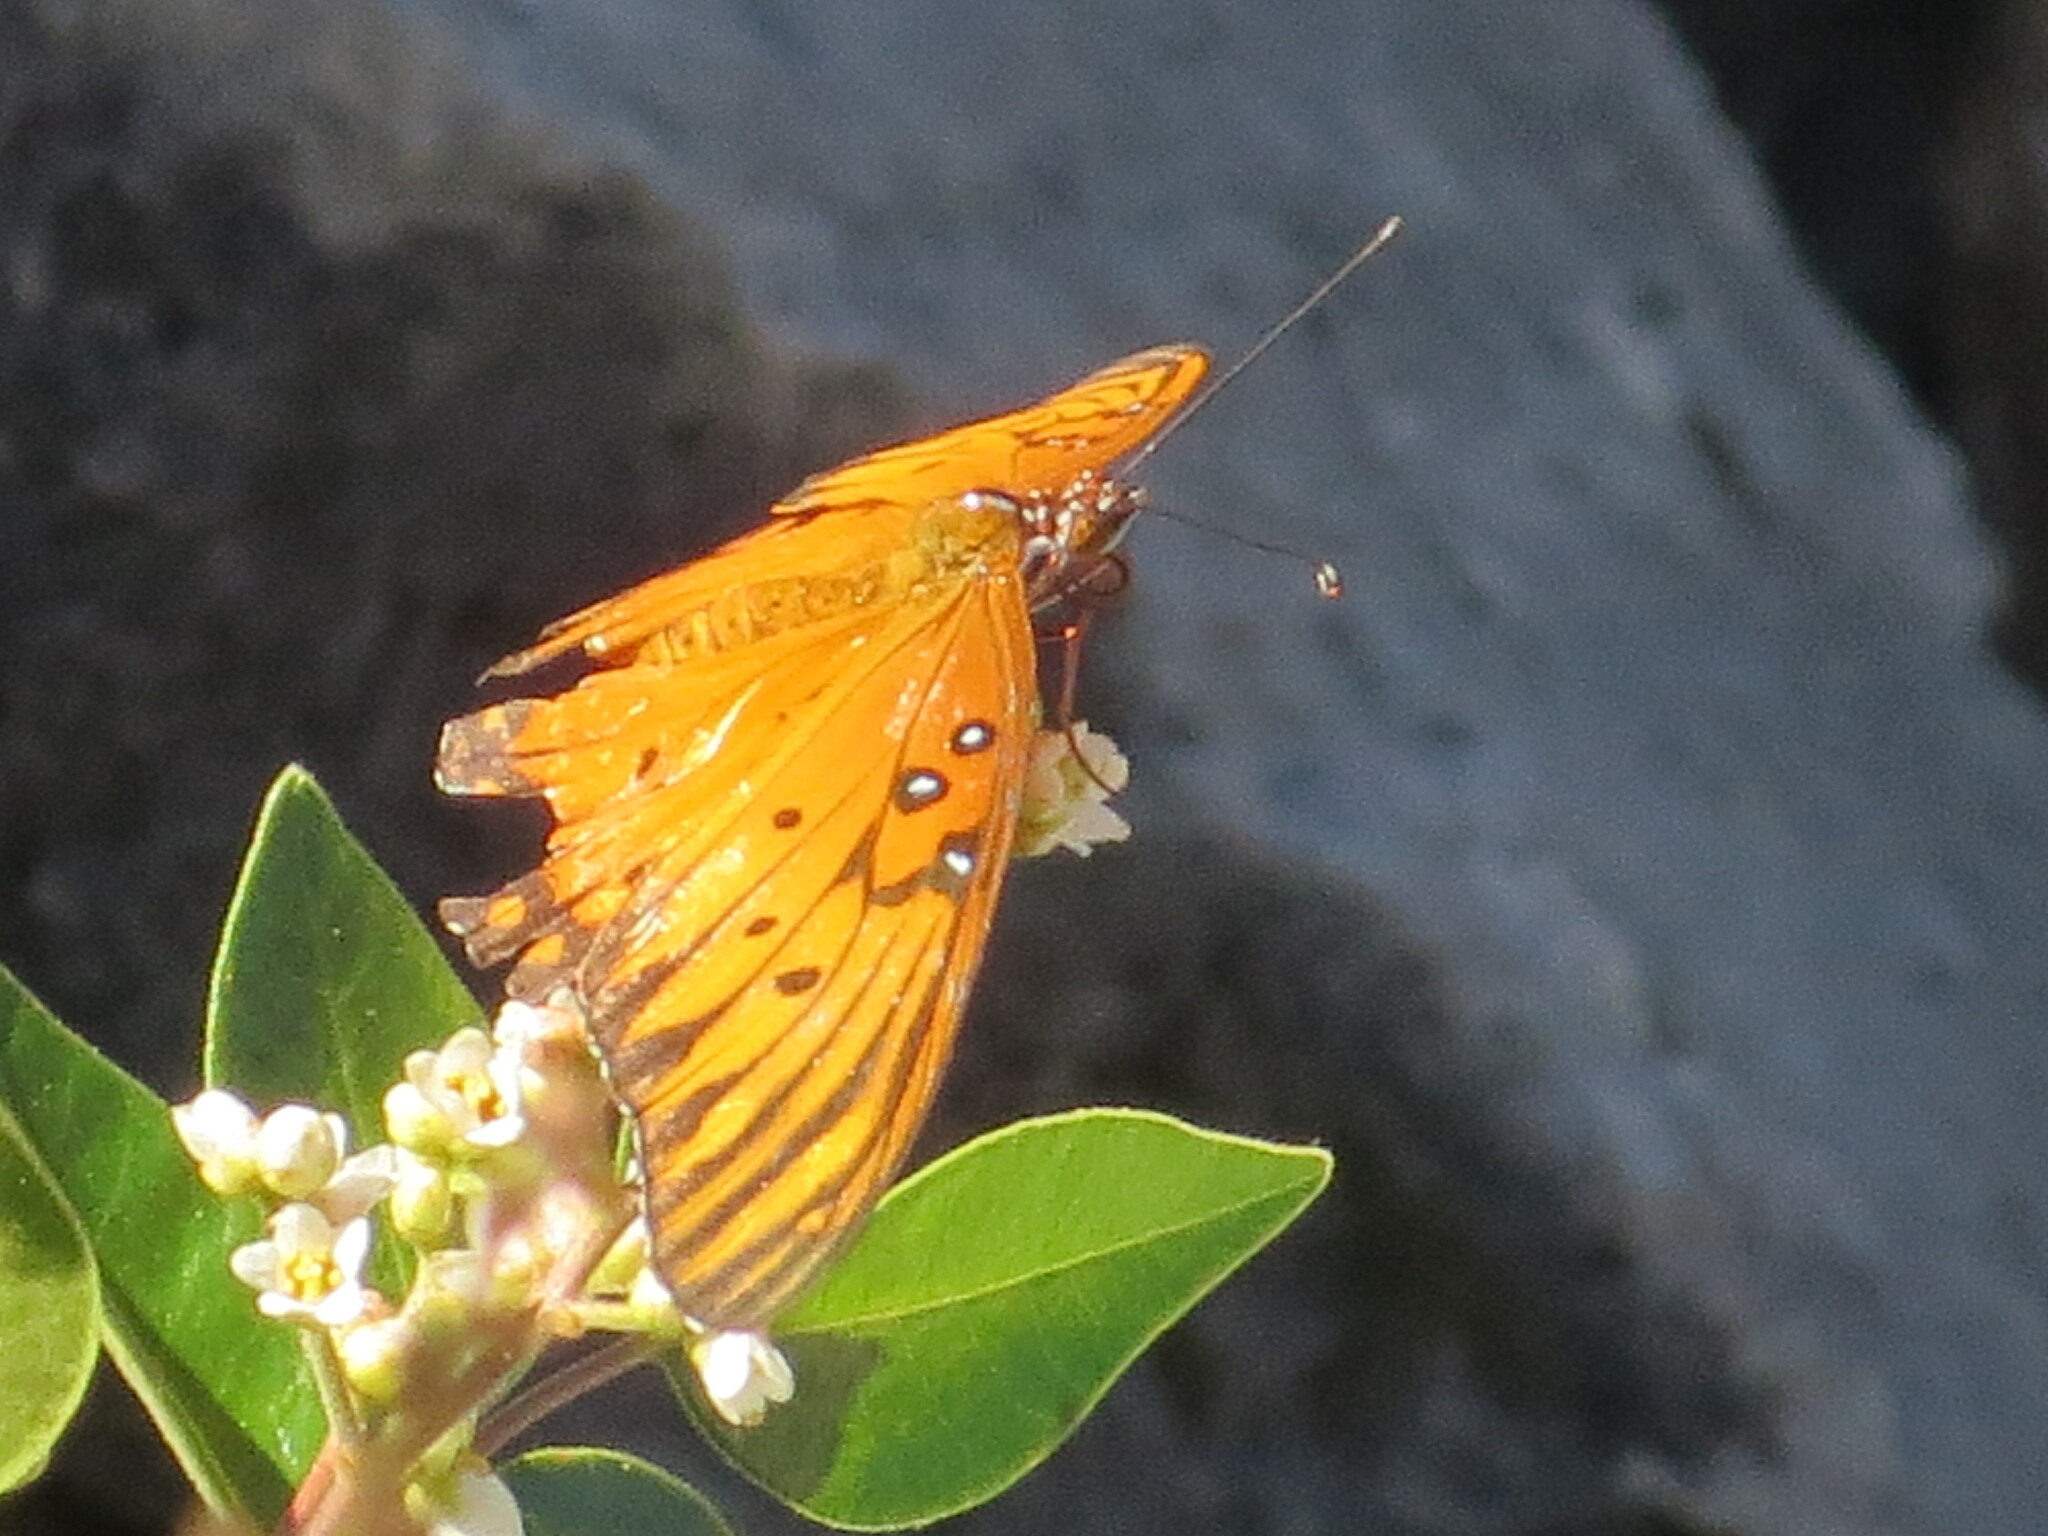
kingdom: Animalia
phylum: Arthropoda
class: Insecta
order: Lepidoptera
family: Nymphalidae
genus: Dione
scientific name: Dione vanillae
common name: Gulf fritillary
